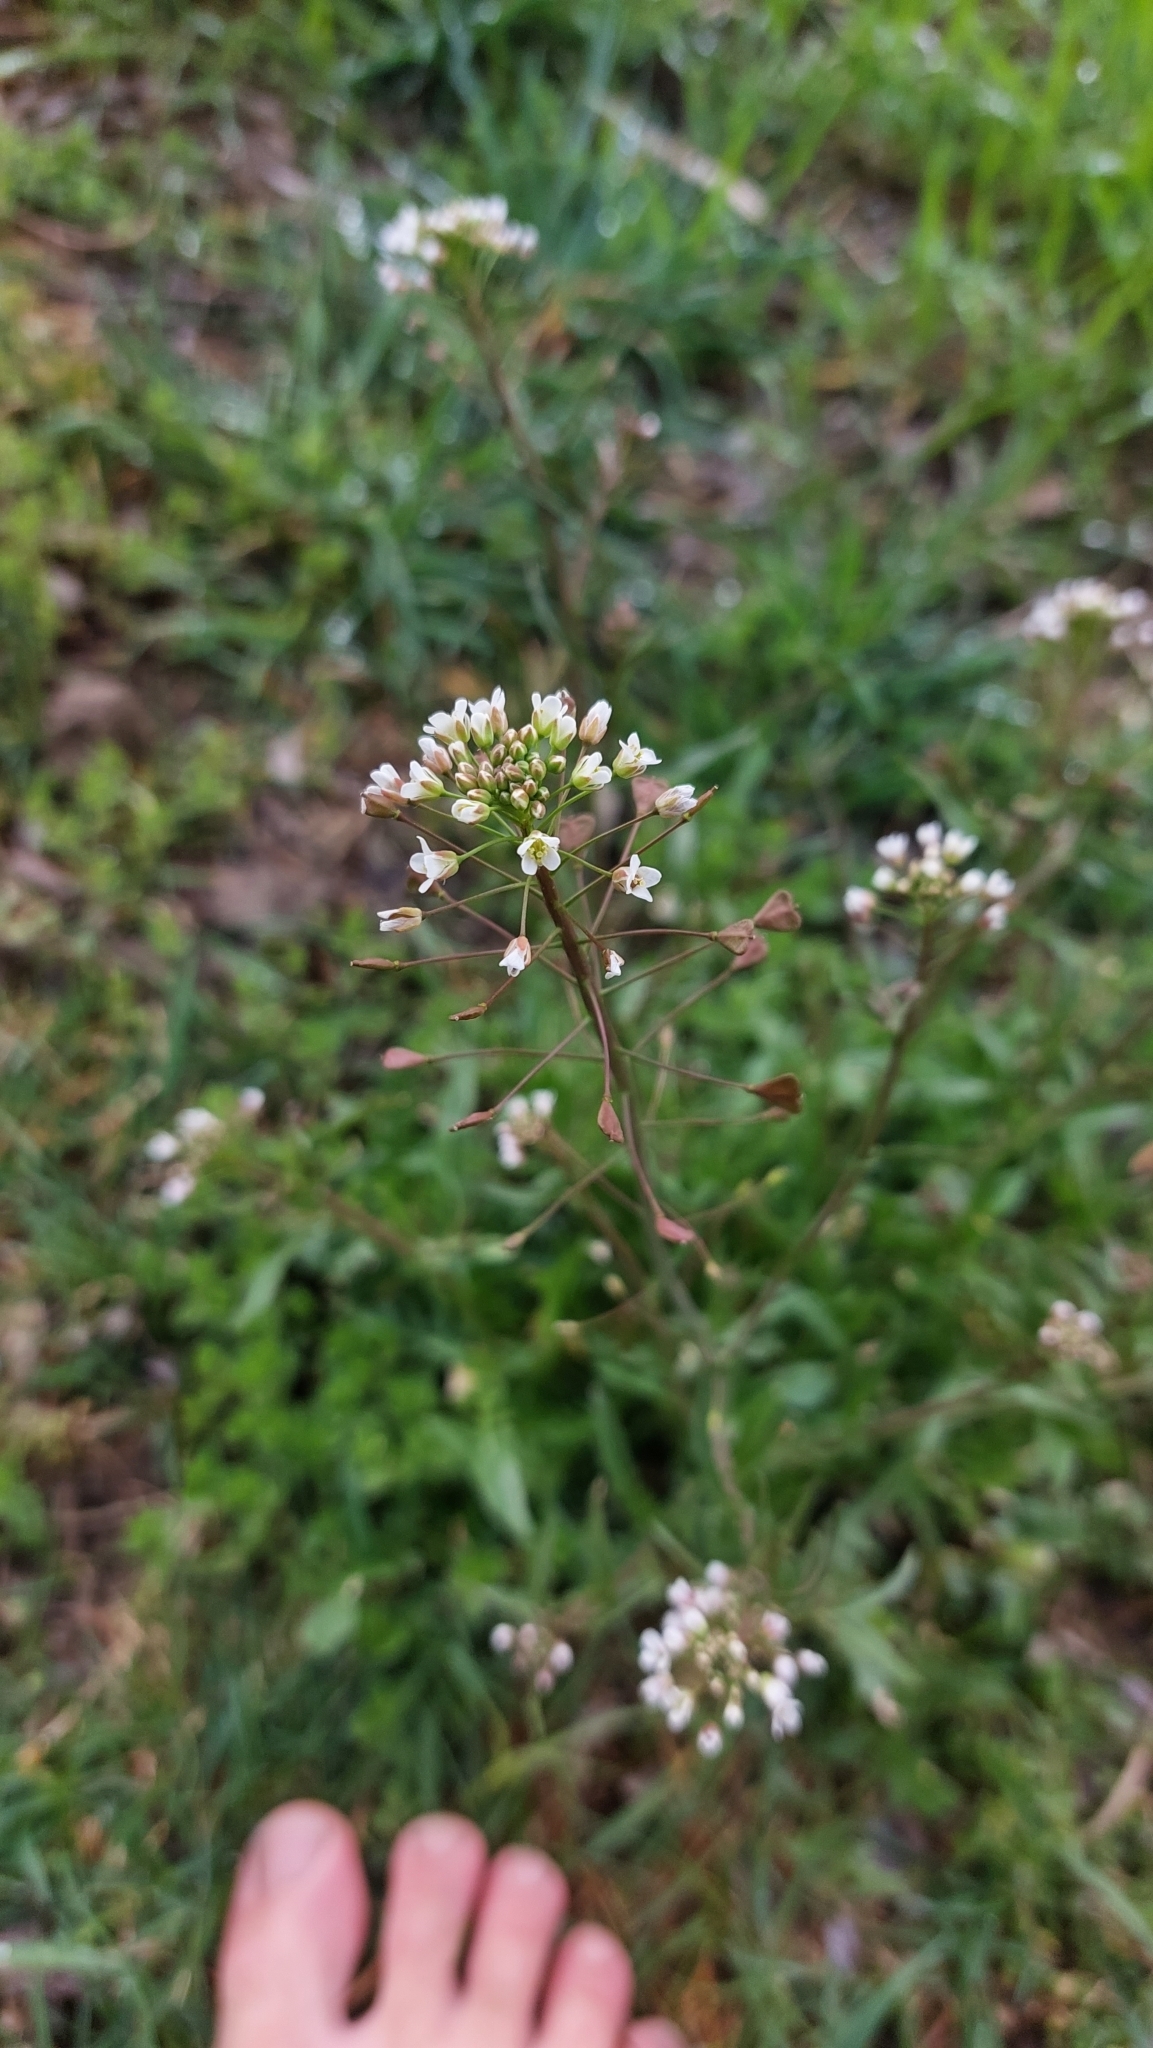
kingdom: Plantae
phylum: Tracheophyta
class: Magnoliopsida
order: Brassicales
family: Brassicaceae
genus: Capsella
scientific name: Capsella bursa-pastoris
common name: Shepherd's purse
